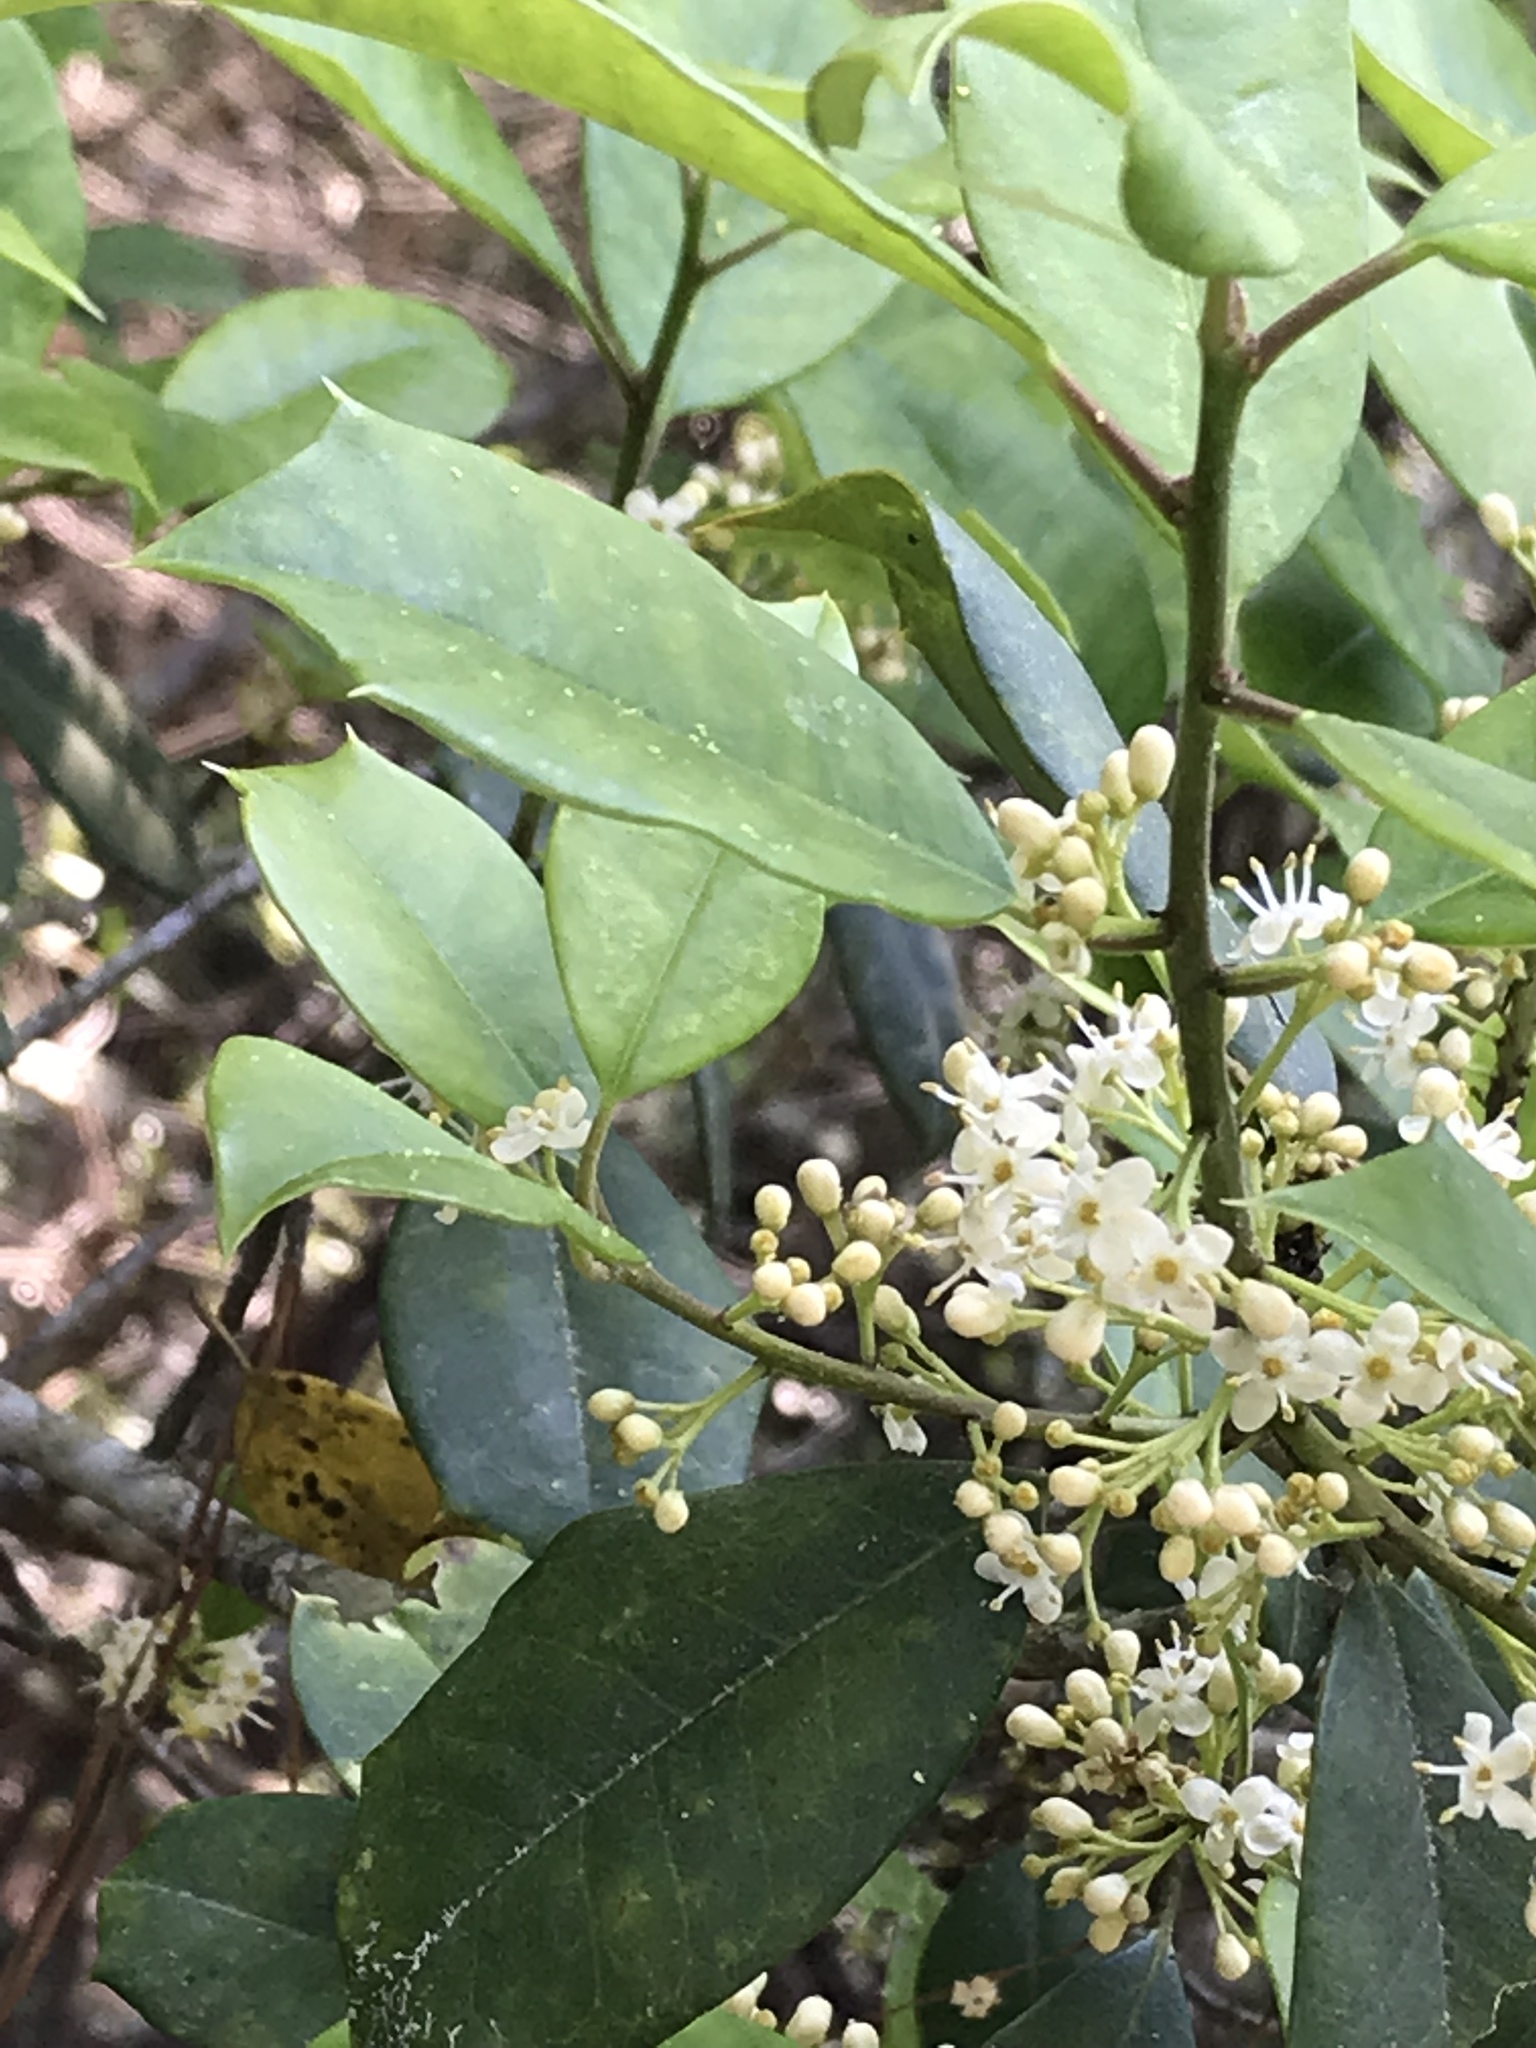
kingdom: Plantae
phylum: Tracheophyta
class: Magnoliopsida
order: Aquifoliales
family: Aquifoliaceae
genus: Ilex
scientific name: Ilex opaca
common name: American holly
